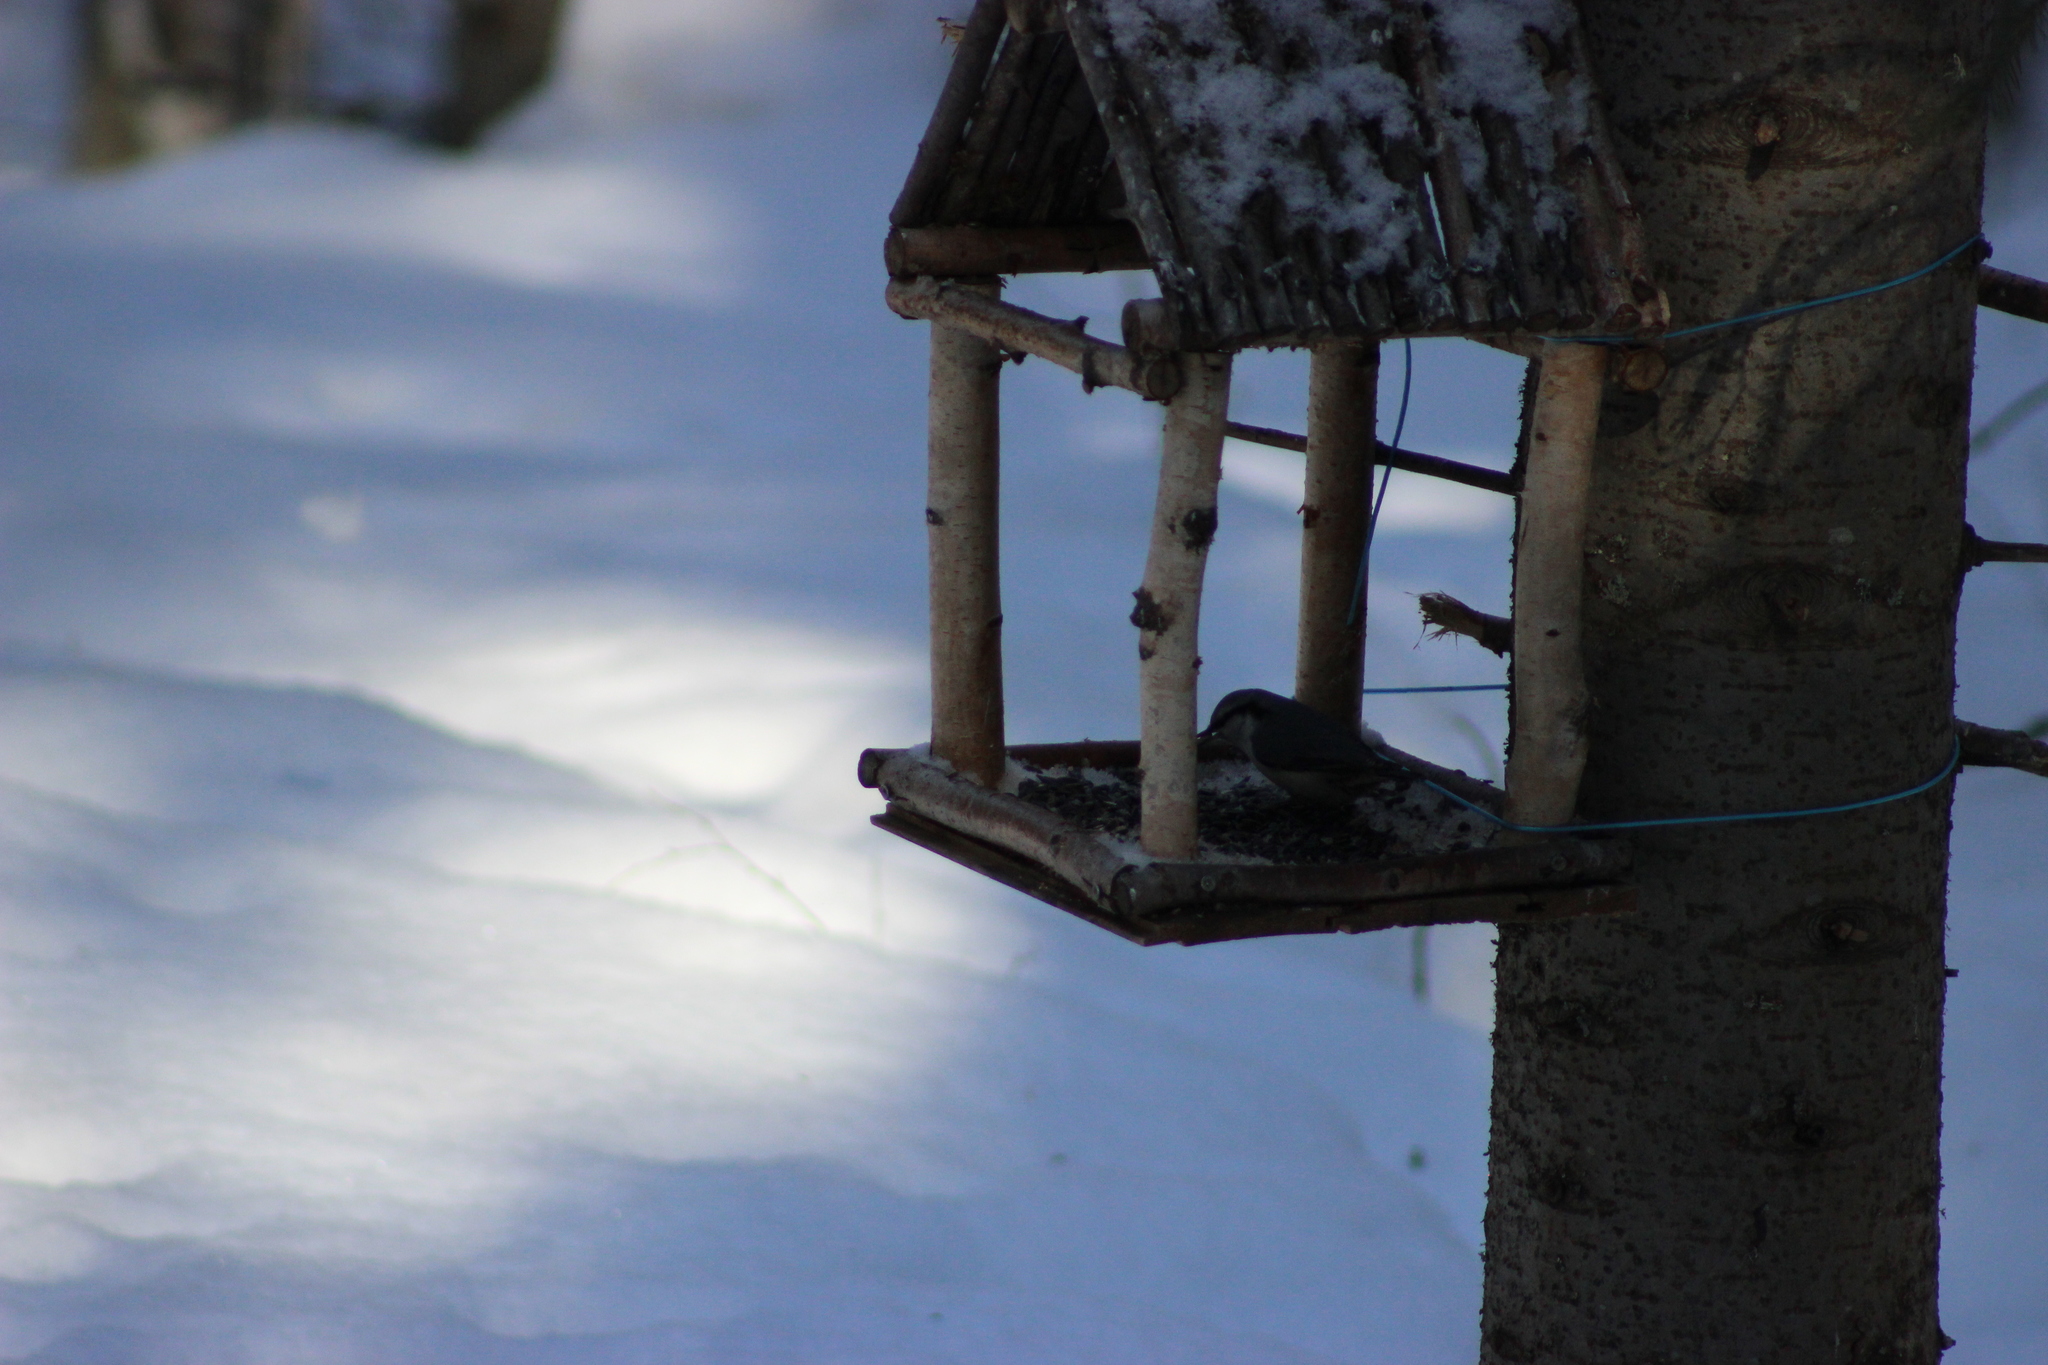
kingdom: Animalia
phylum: Chordata
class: Aves
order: Passeriformes
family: Sittidae
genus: Sitta
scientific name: Sitta europaea
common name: Eurasian nuthatch
